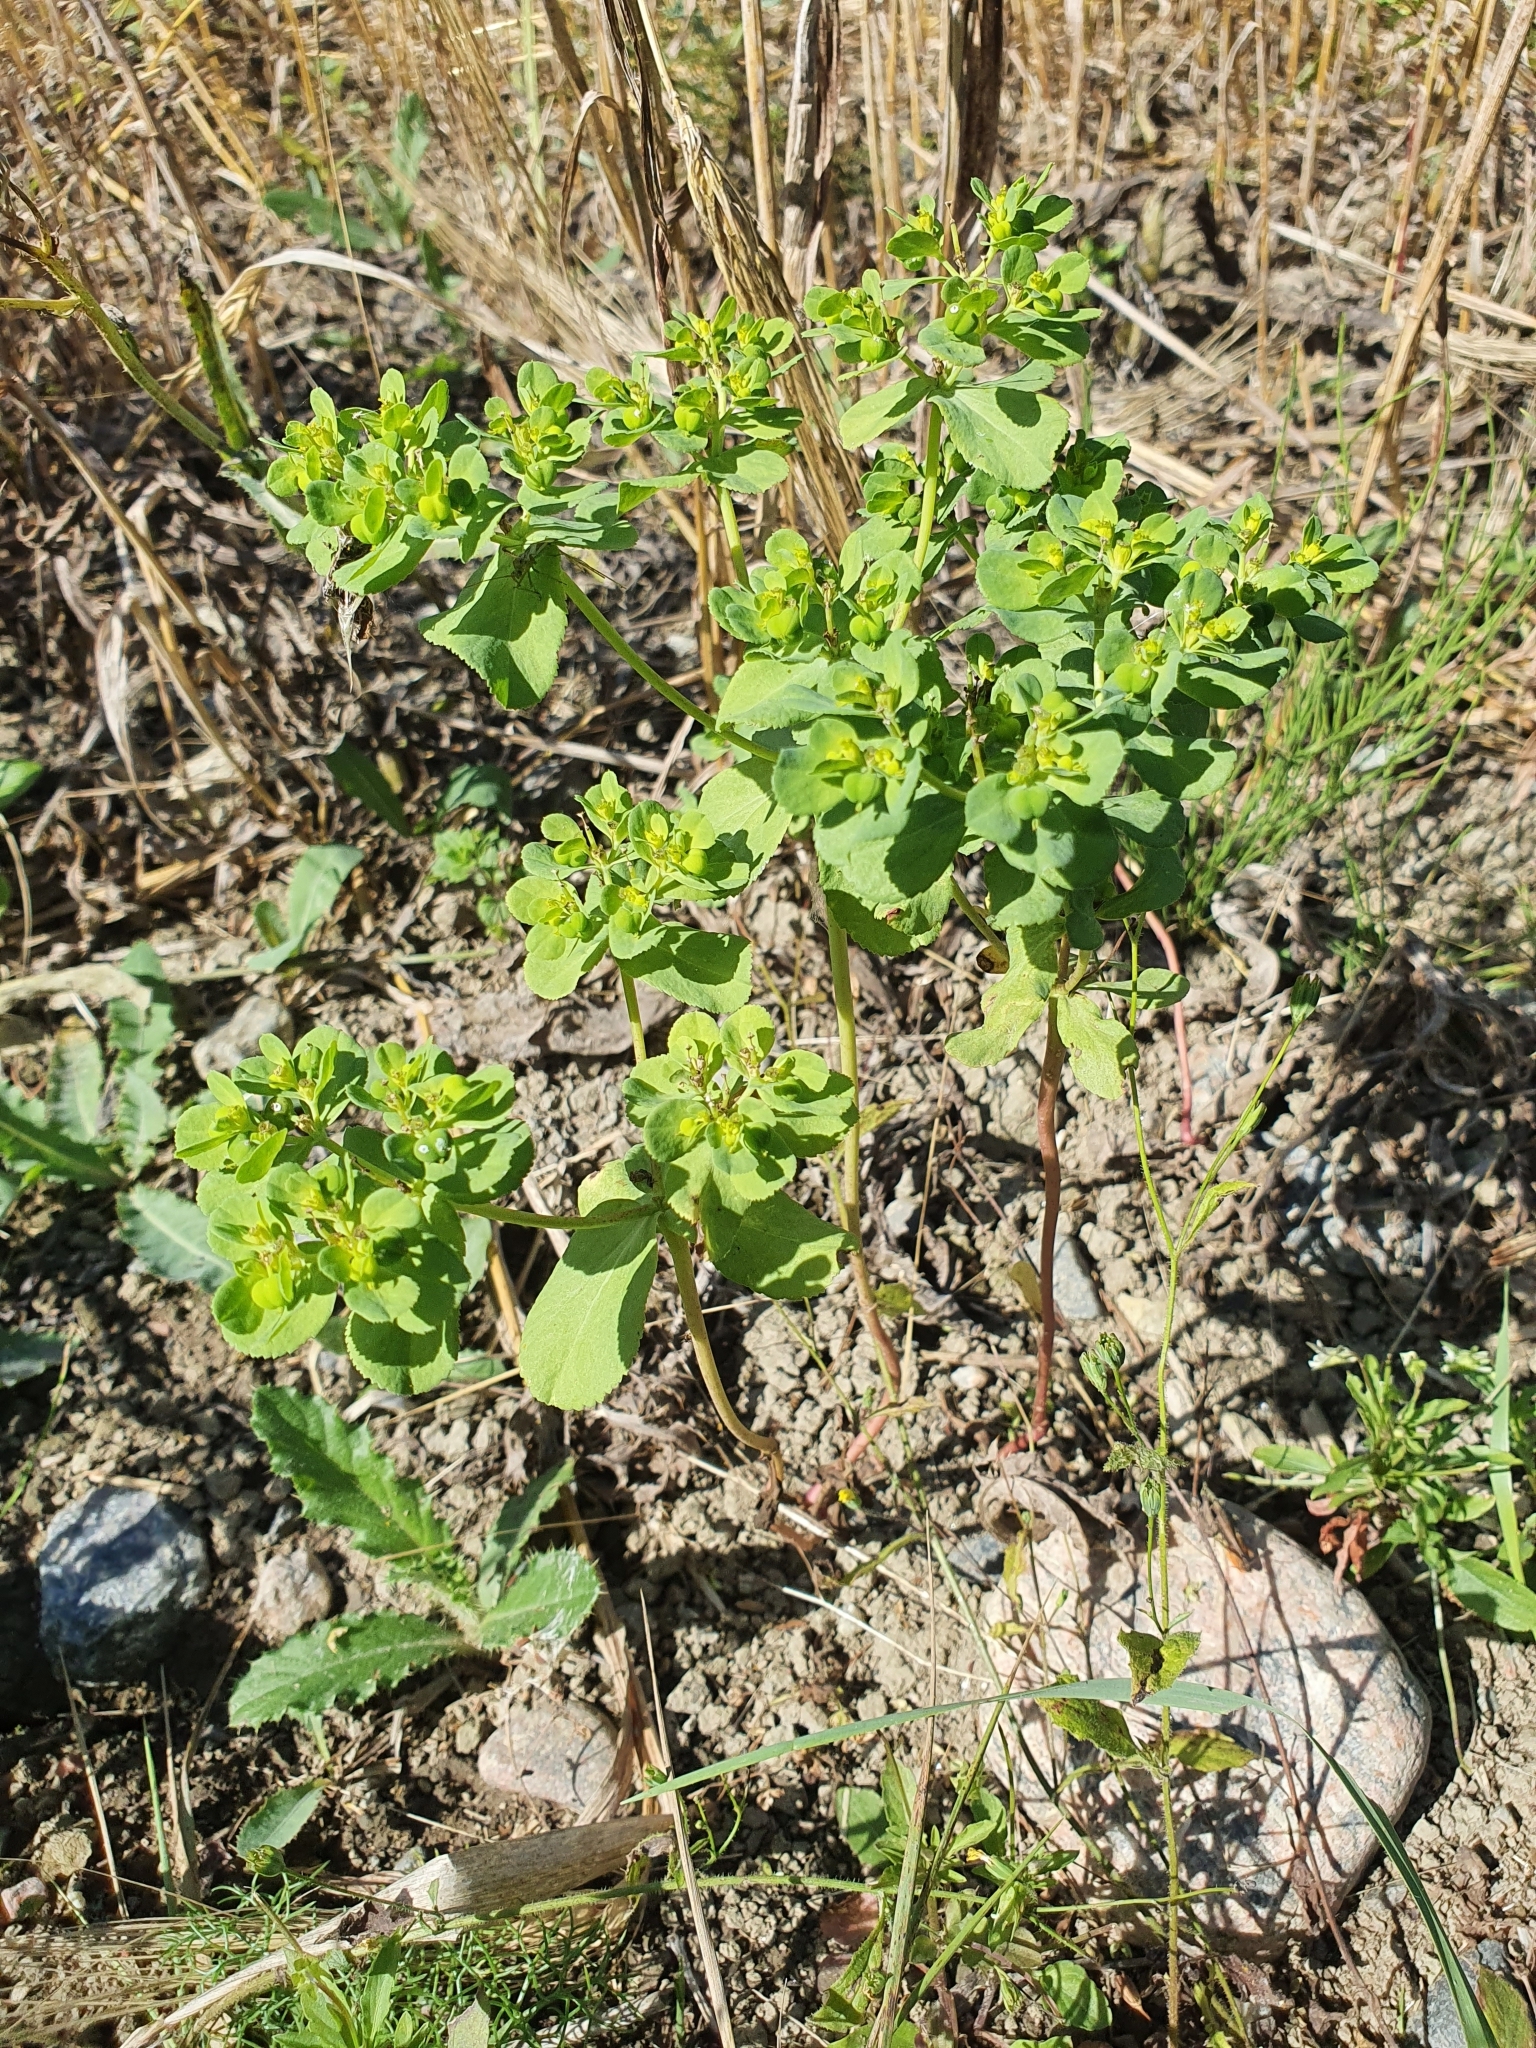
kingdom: Plantae
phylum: Tracheophyta
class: Magnoliopsida
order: Malpighiales
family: Euphorbiaceae
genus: Euphorbia
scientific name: Euphorbia helioscopia
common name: Sun spurge
